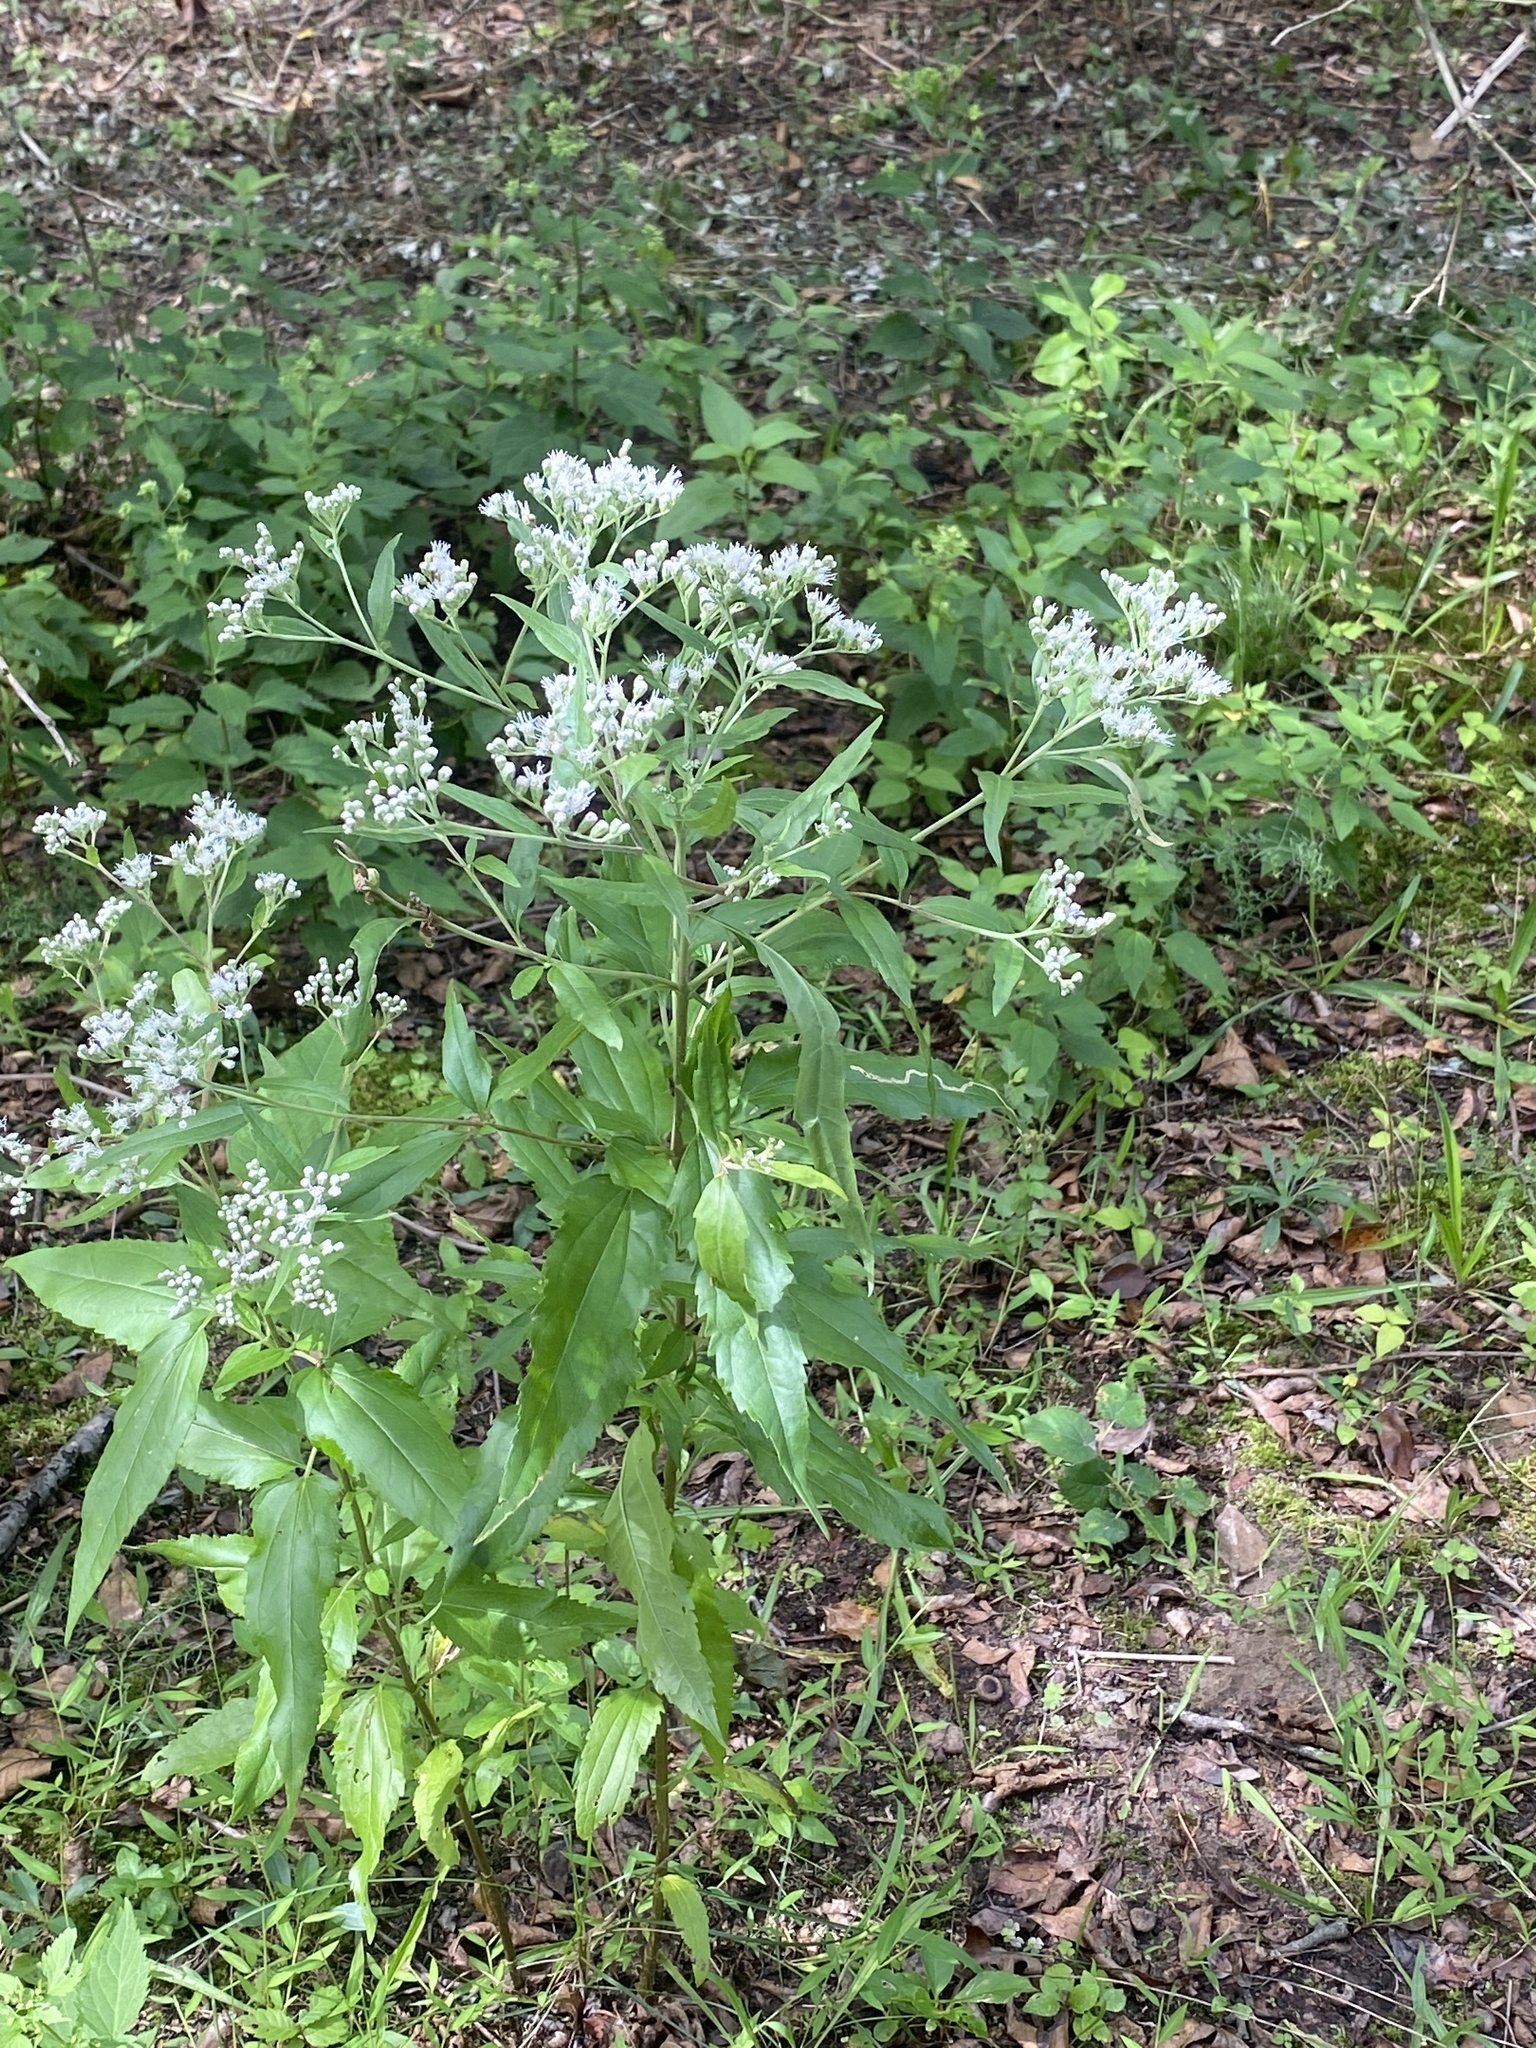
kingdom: Plantae
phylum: Tracheophyta
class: Magnoliopsida
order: Asterales
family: Asteraceae
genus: Eupatorium
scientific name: Eupatorium serotinum
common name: Late boneset
